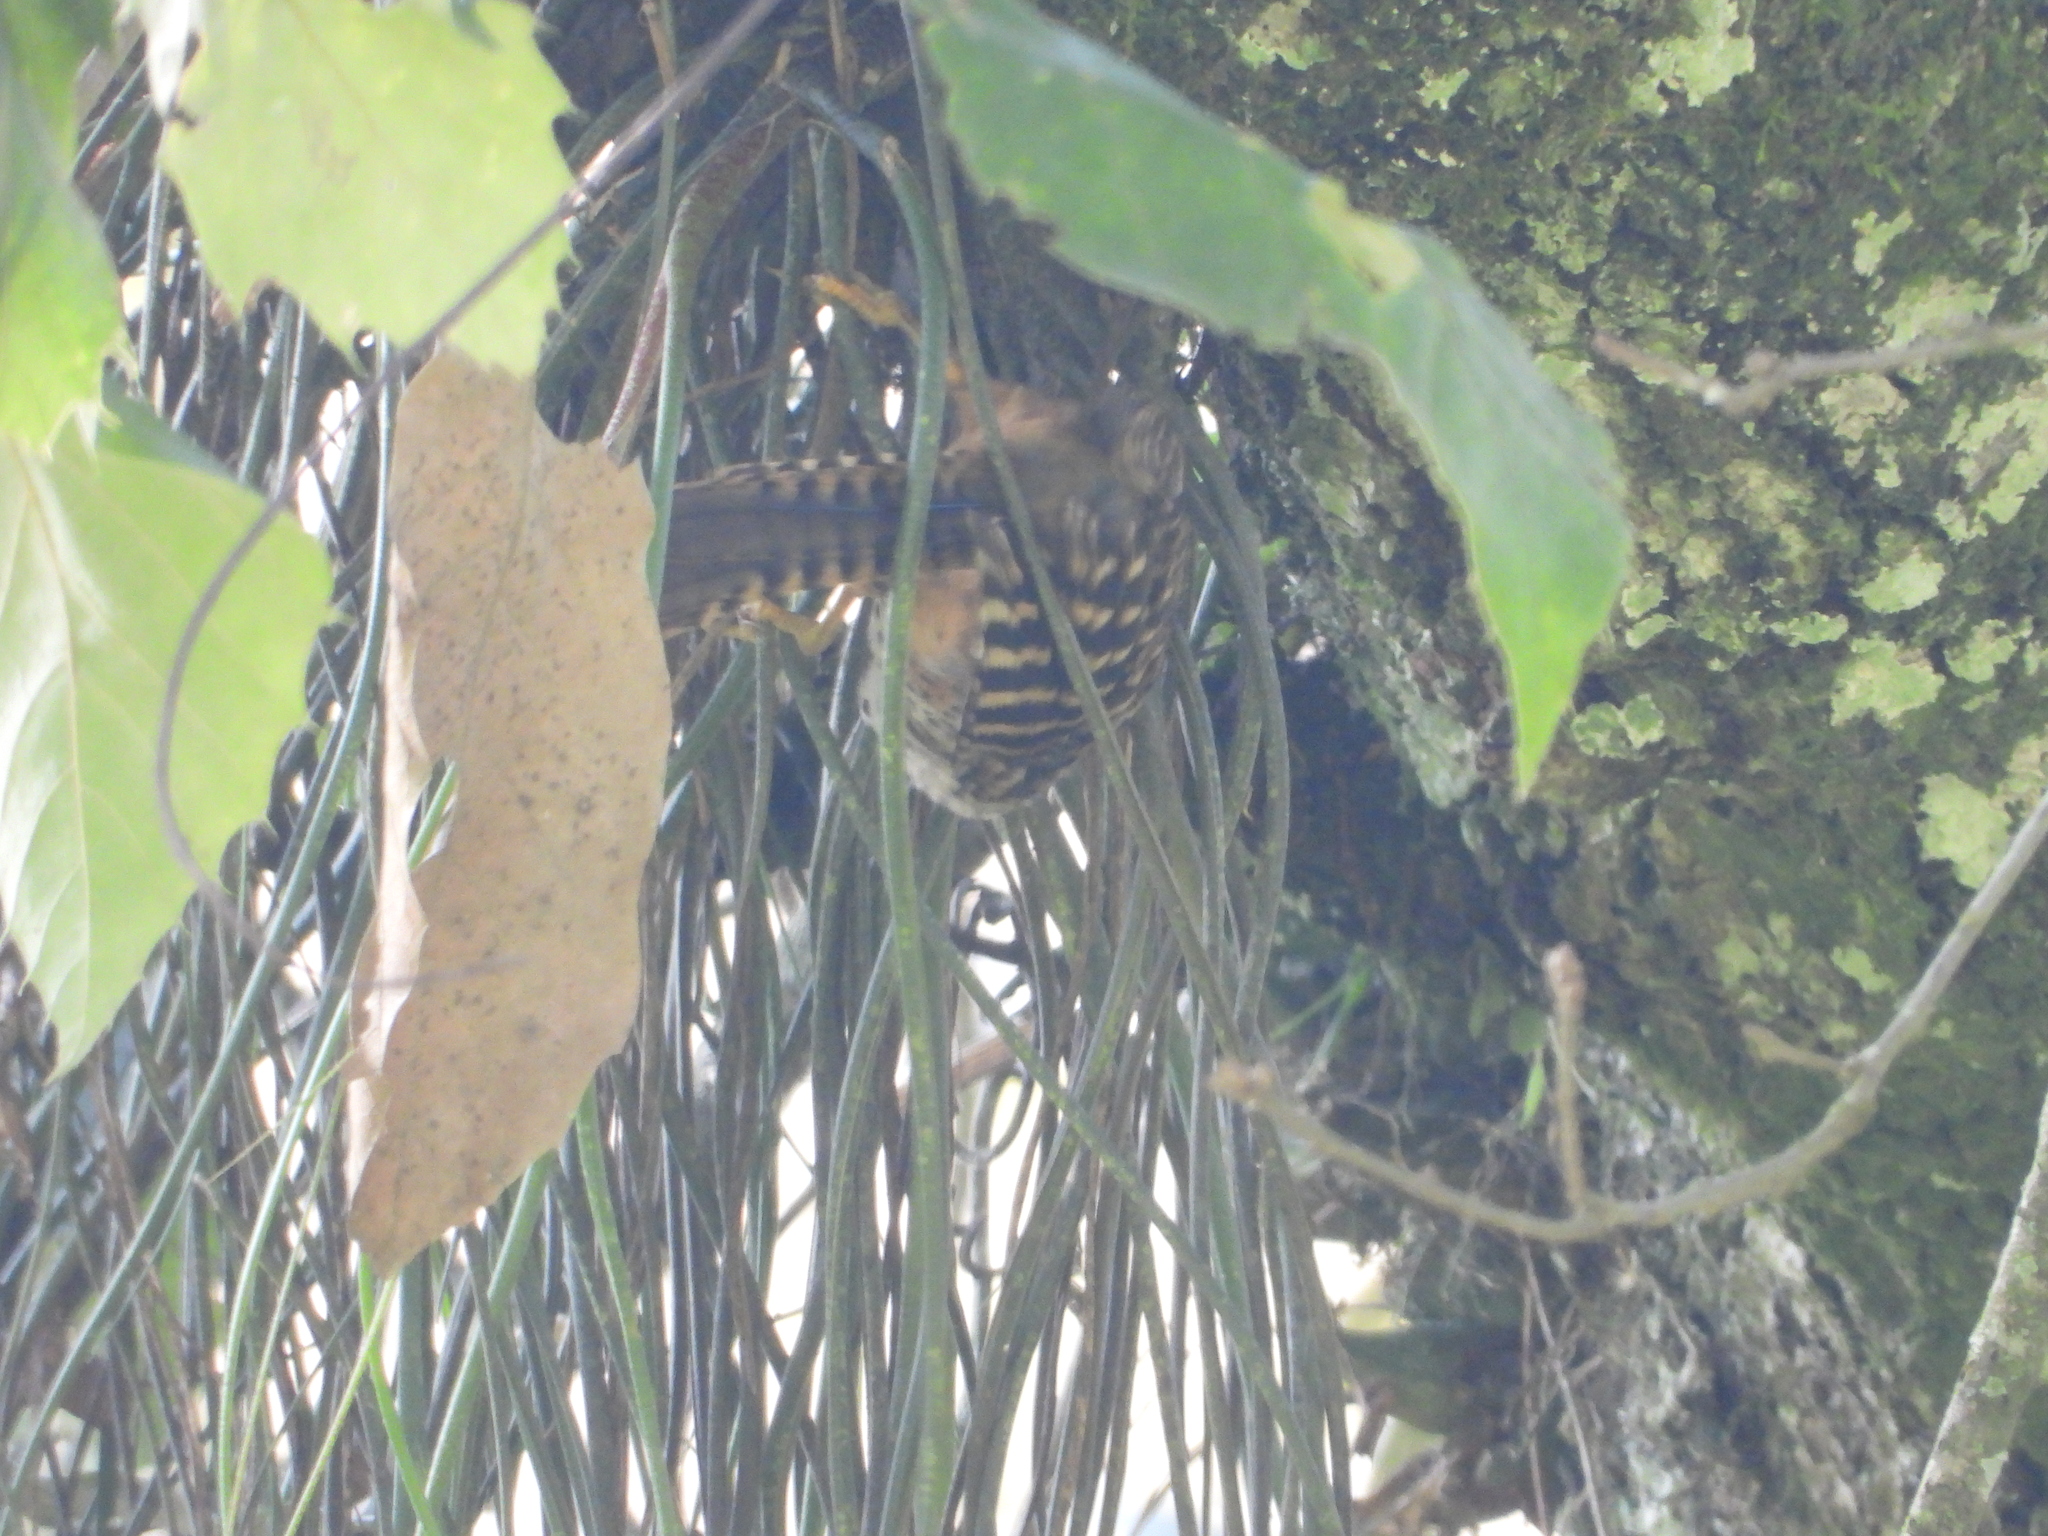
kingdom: Animalia
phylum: Chordata
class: Aves
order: Passeriformes
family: Troglodytidae
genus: Campylorhynchus
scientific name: Campylorhynchus zonatus
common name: Band-backed wren
